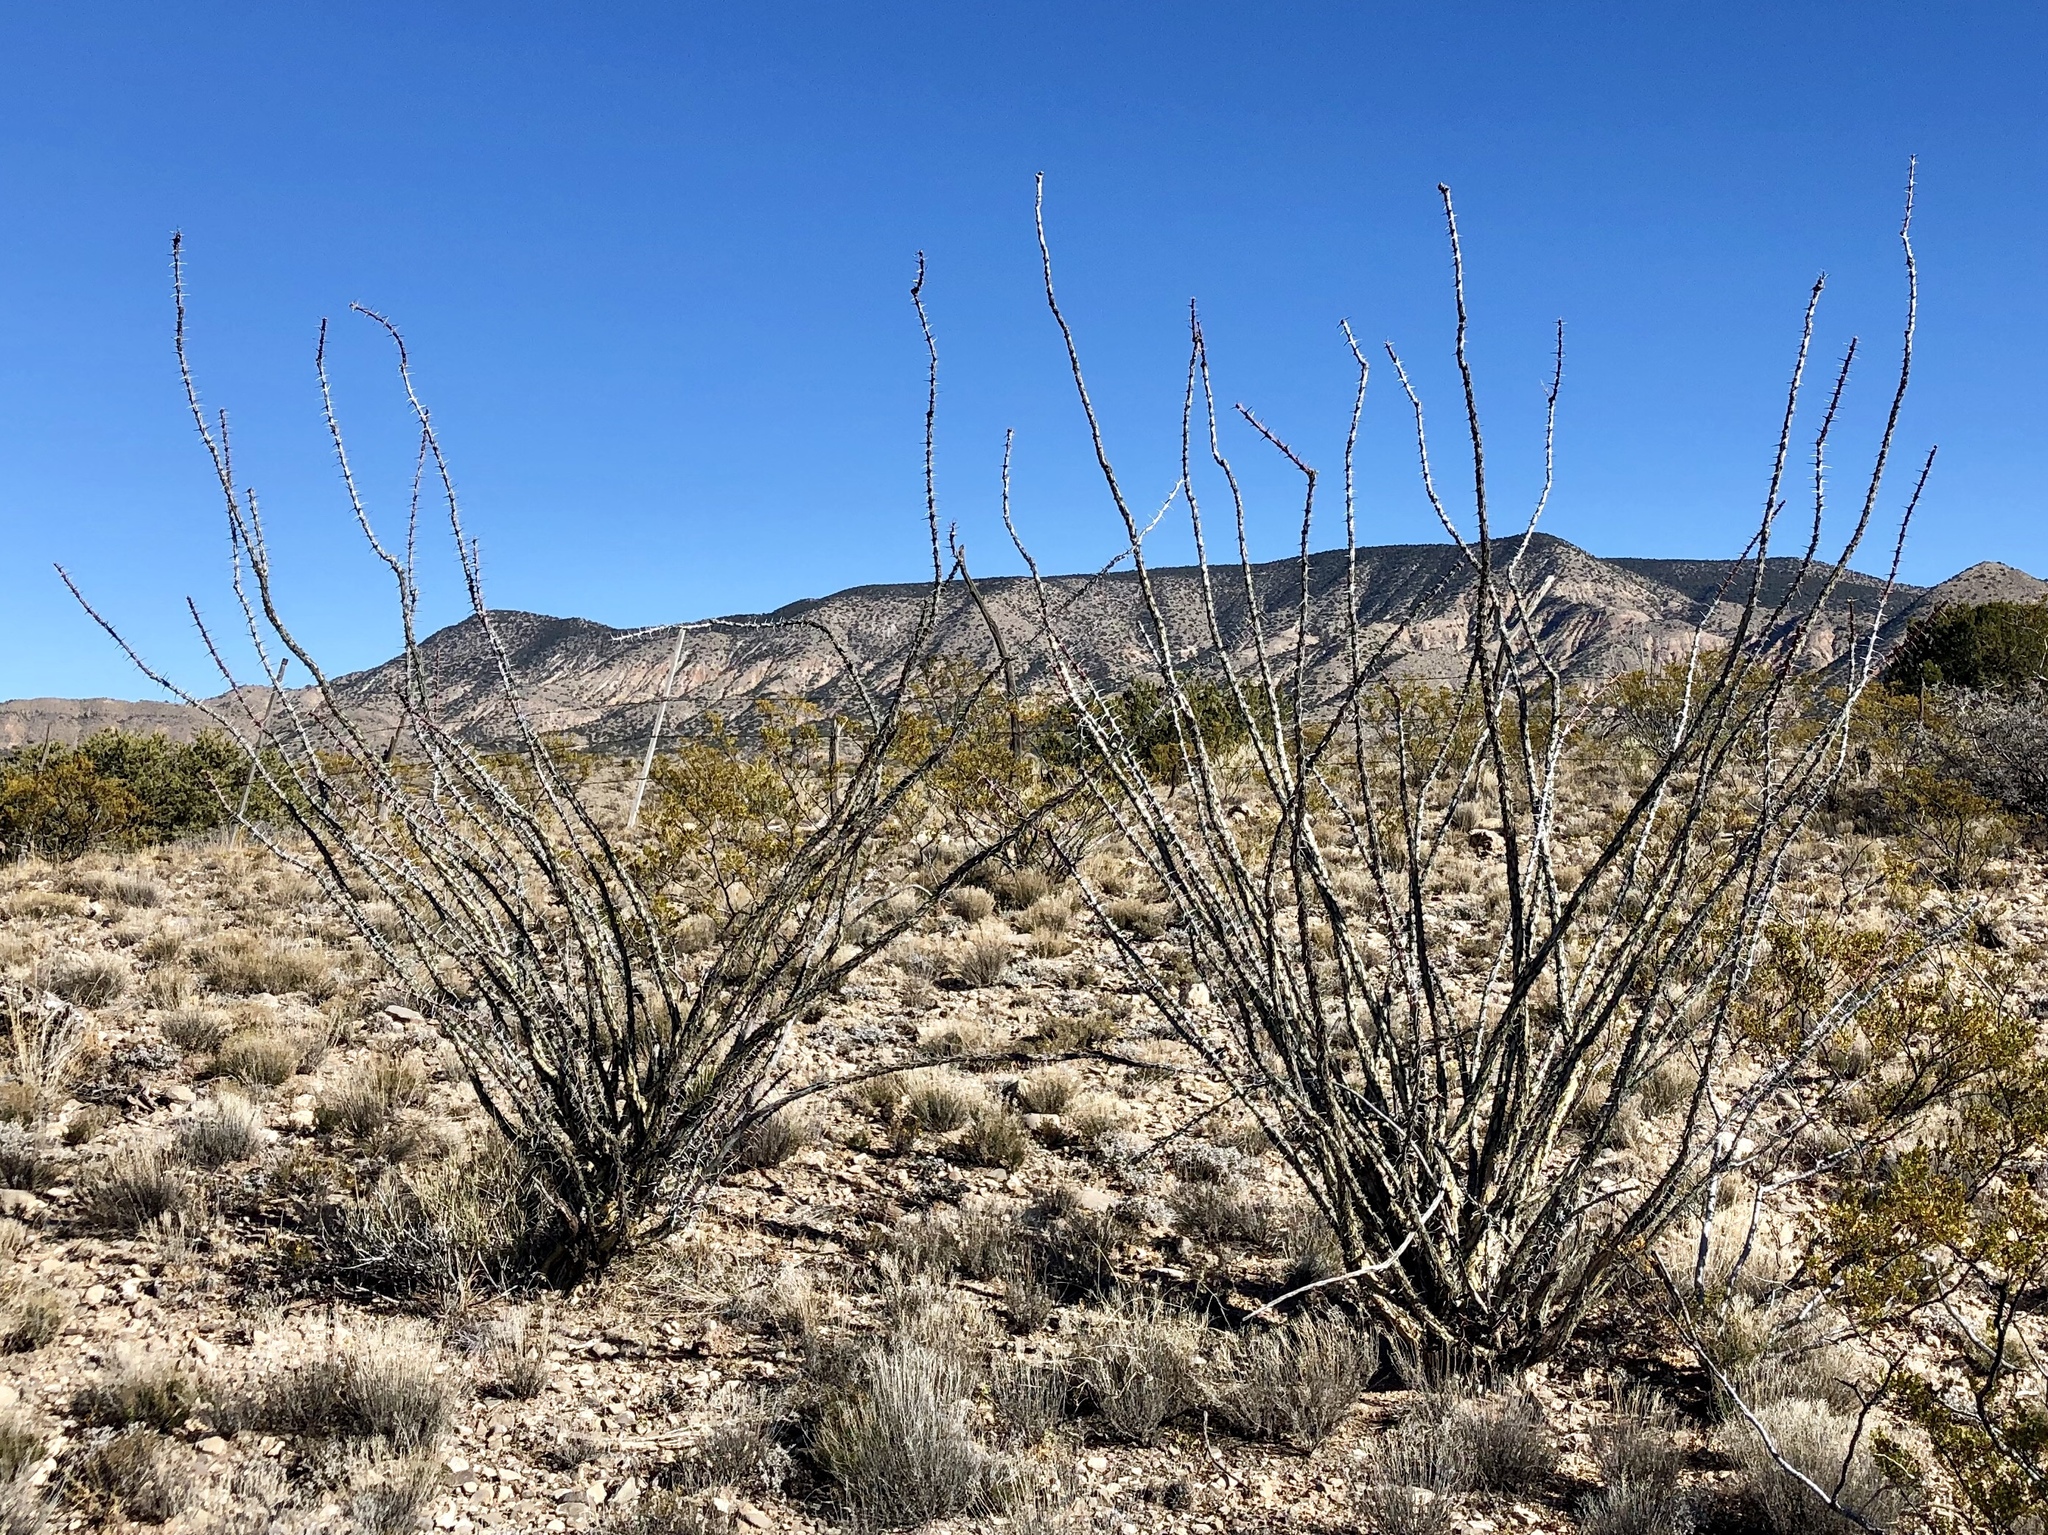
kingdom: Plantae
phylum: Tracheophyta
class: Magnoliopsida
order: Ericales
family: Fouquieriaceae
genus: Fouquieria
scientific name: Fouquieria splendens
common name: Vine-cactus
